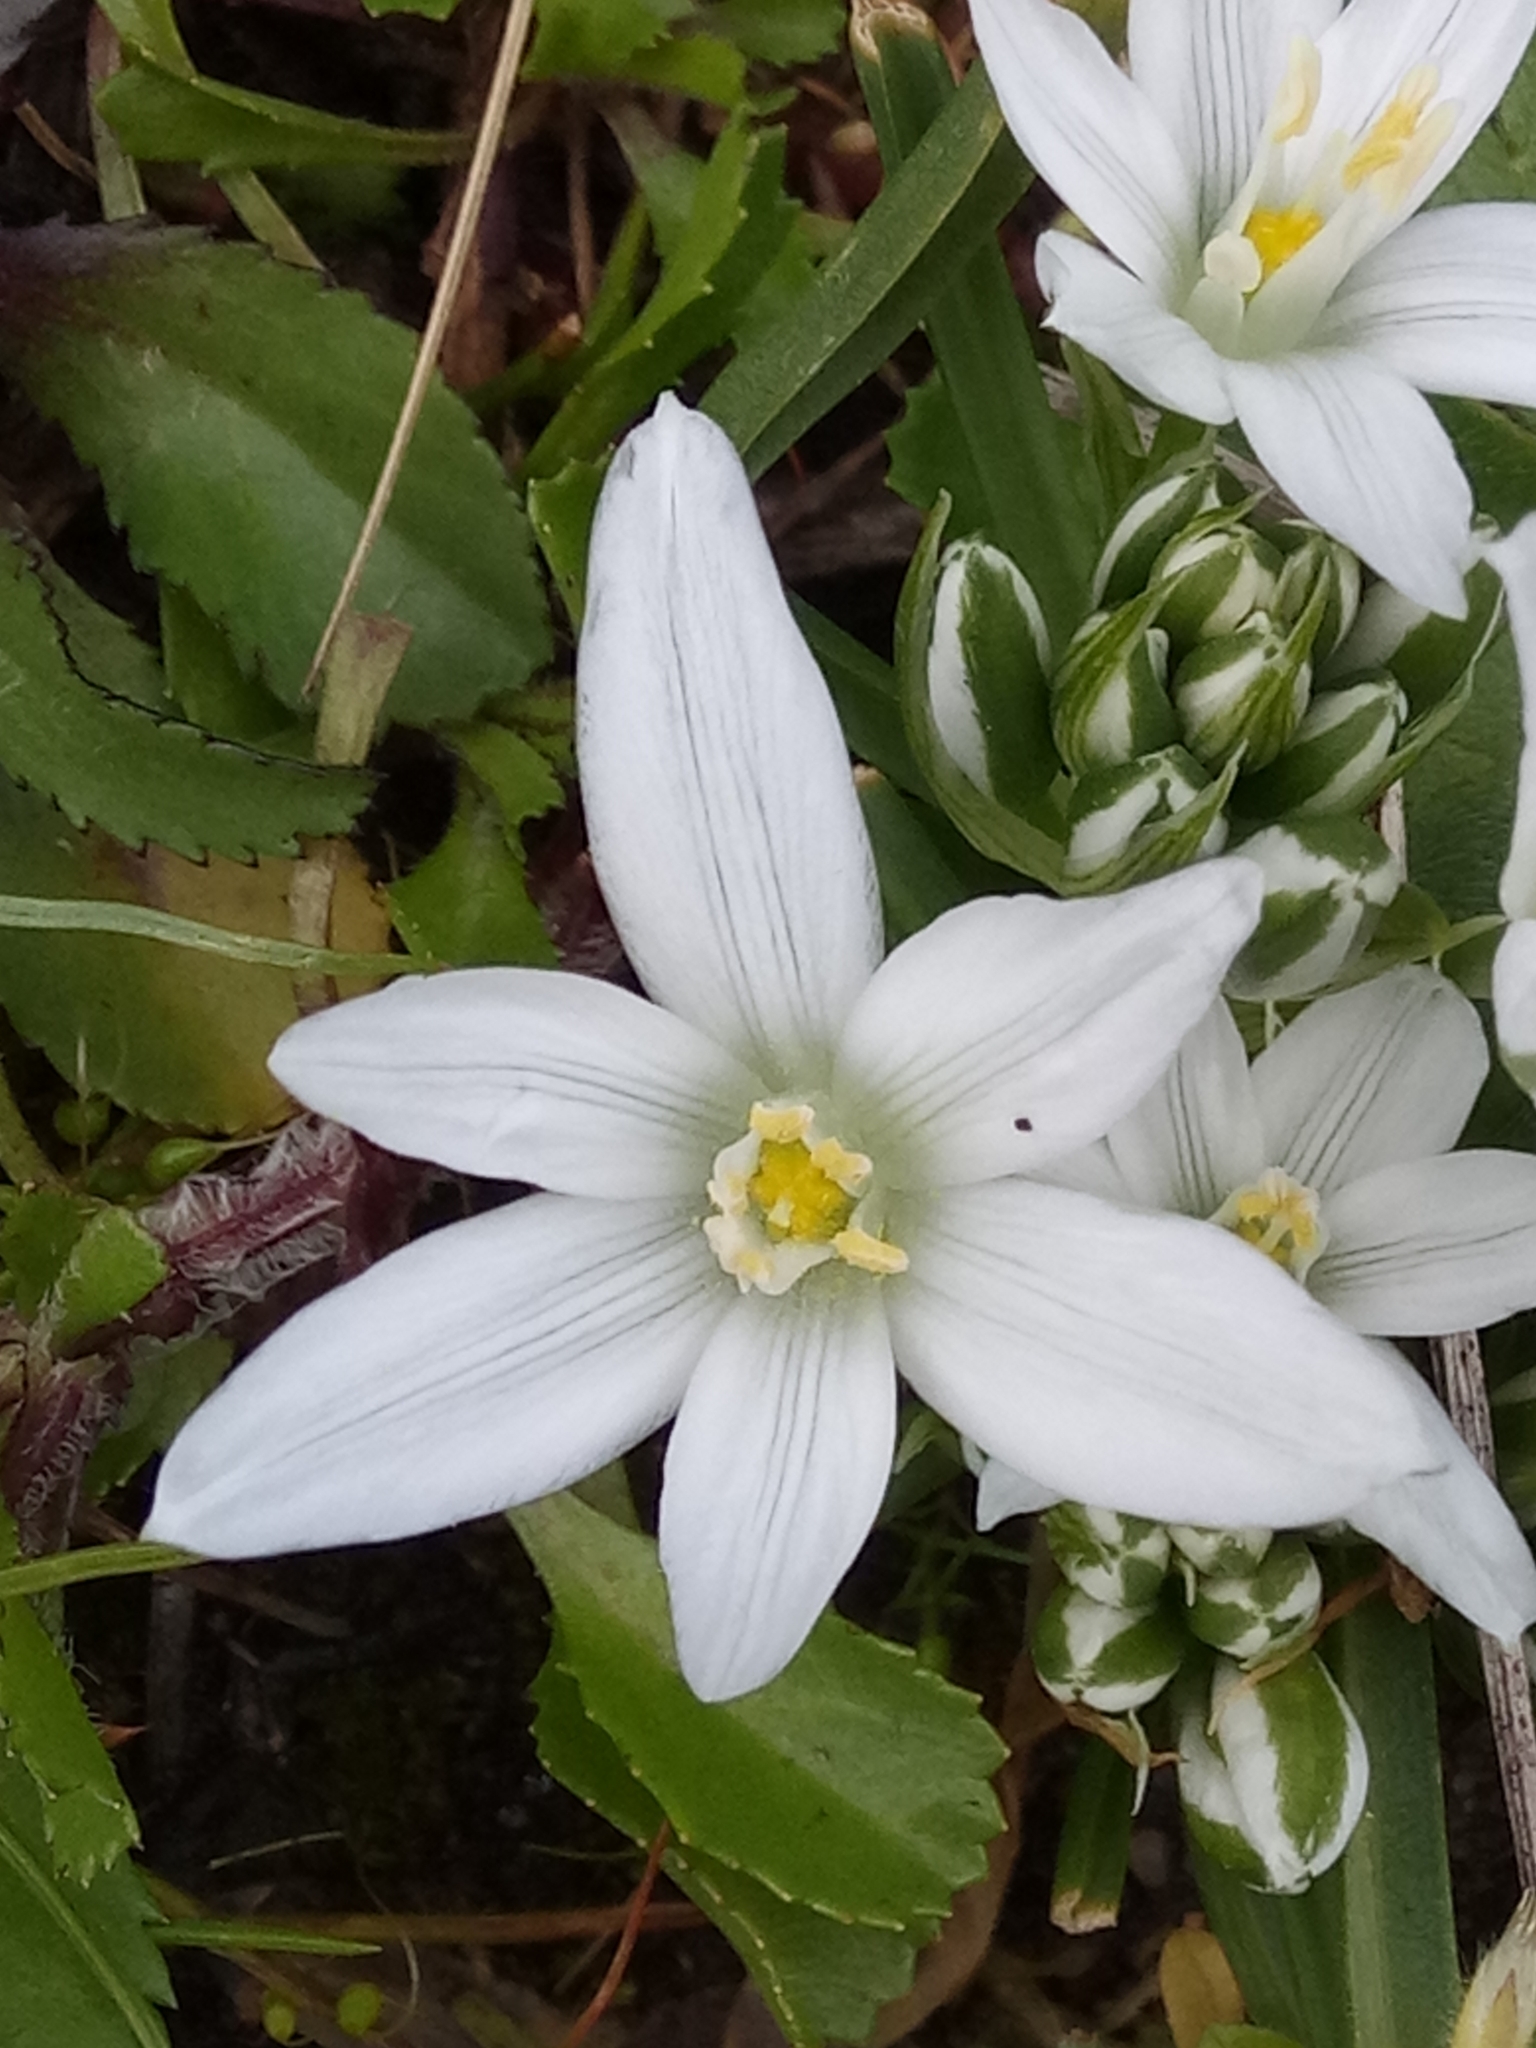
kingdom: Plantae
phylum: Tracheophyta
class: Liliopsida
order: Asparagales
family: Asparagaceae
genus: Ornithogalum
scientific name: Ornithogalum baeticum
